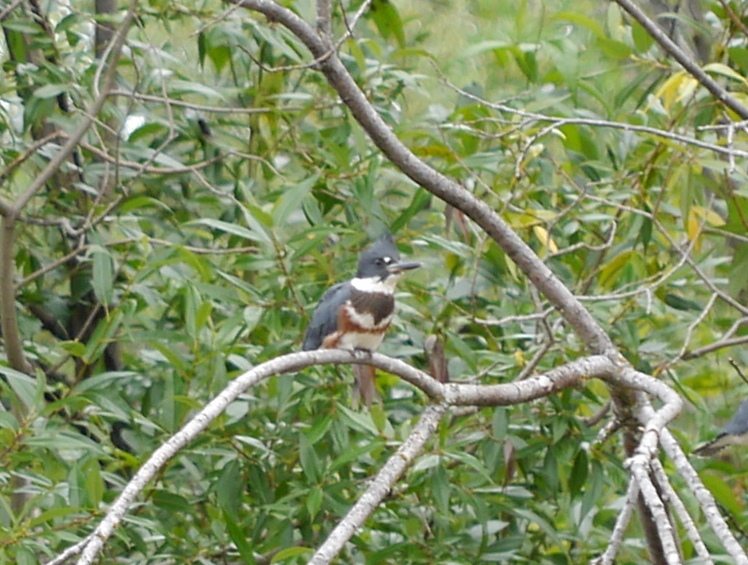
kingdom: Animalia
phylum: Chordata
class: Aves
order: Coraciiformes
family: Alcedinidae
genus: Megaceryle
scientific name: Megaceryle alcyon
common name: Belted kingfisher
